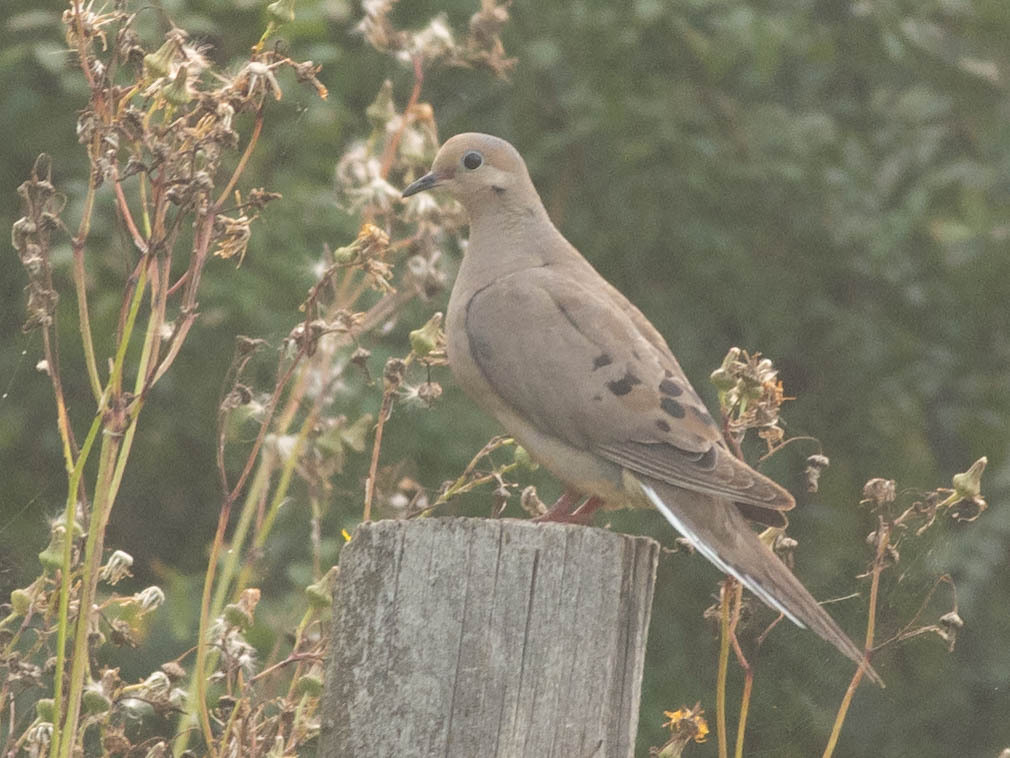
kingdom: Animalia
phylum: Chordata
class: Aves
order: Columbiformes
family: Columbidae
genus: Zenaida
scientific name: Zenaida macroura
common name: Mourning dove
